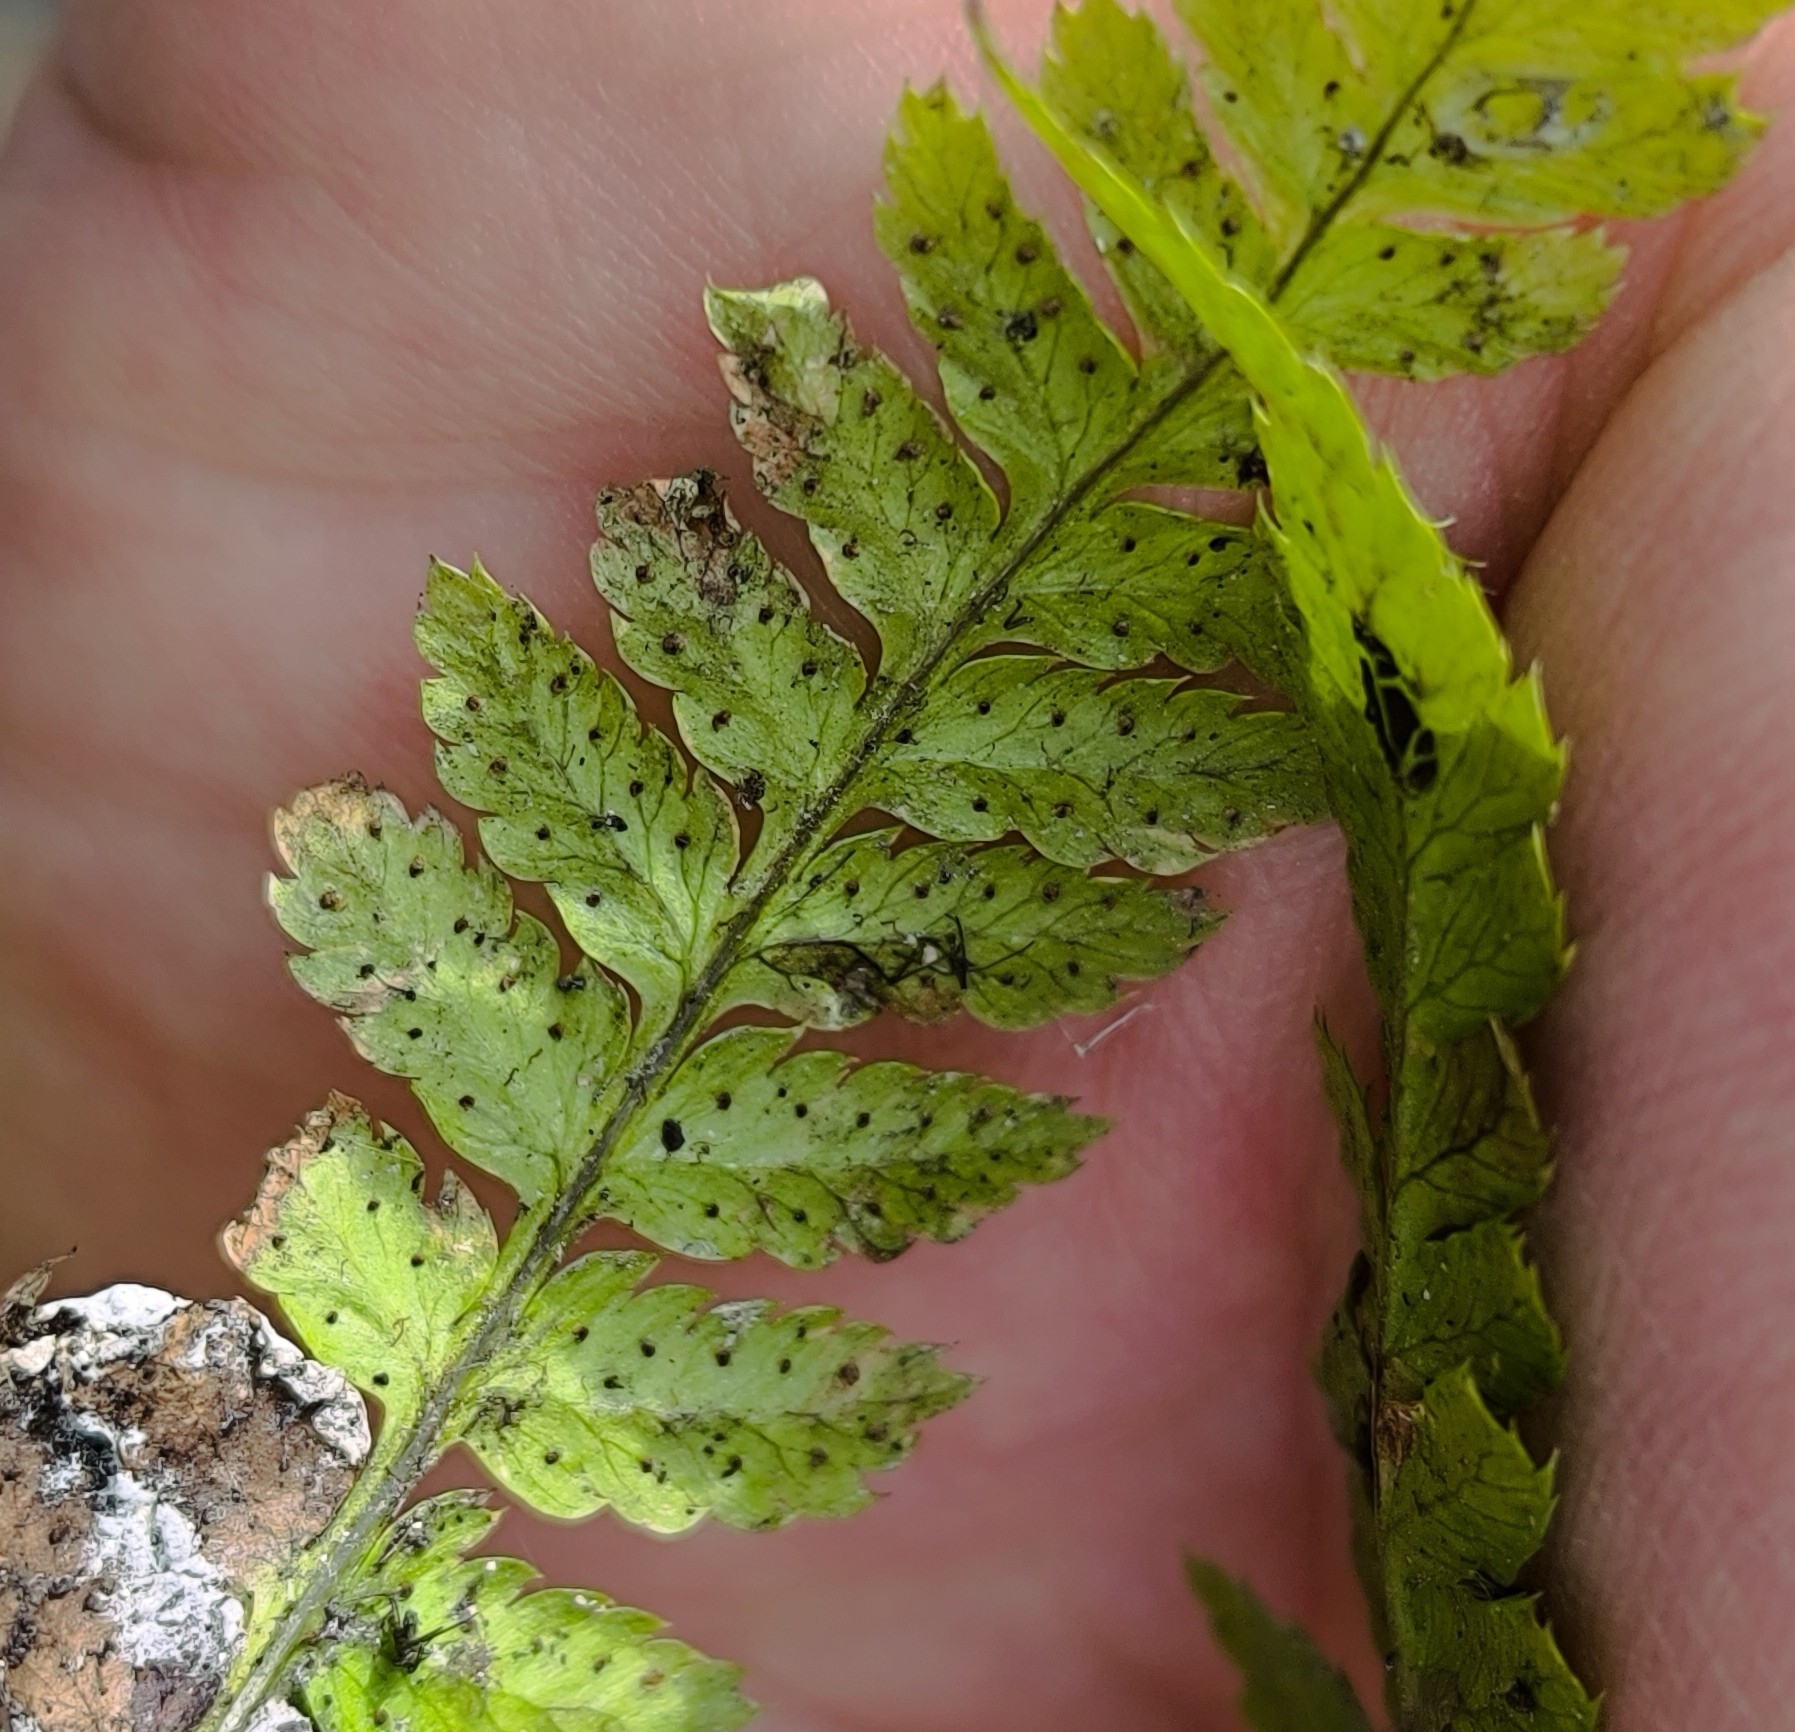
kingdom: Plantae
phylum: Tracheophyta
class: Polypodiopsida
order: Polypodiales
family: Dryopteridaceae
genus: Dryopteris
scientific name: Dryopteris carthusiana
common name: Narrow buckler-fern
